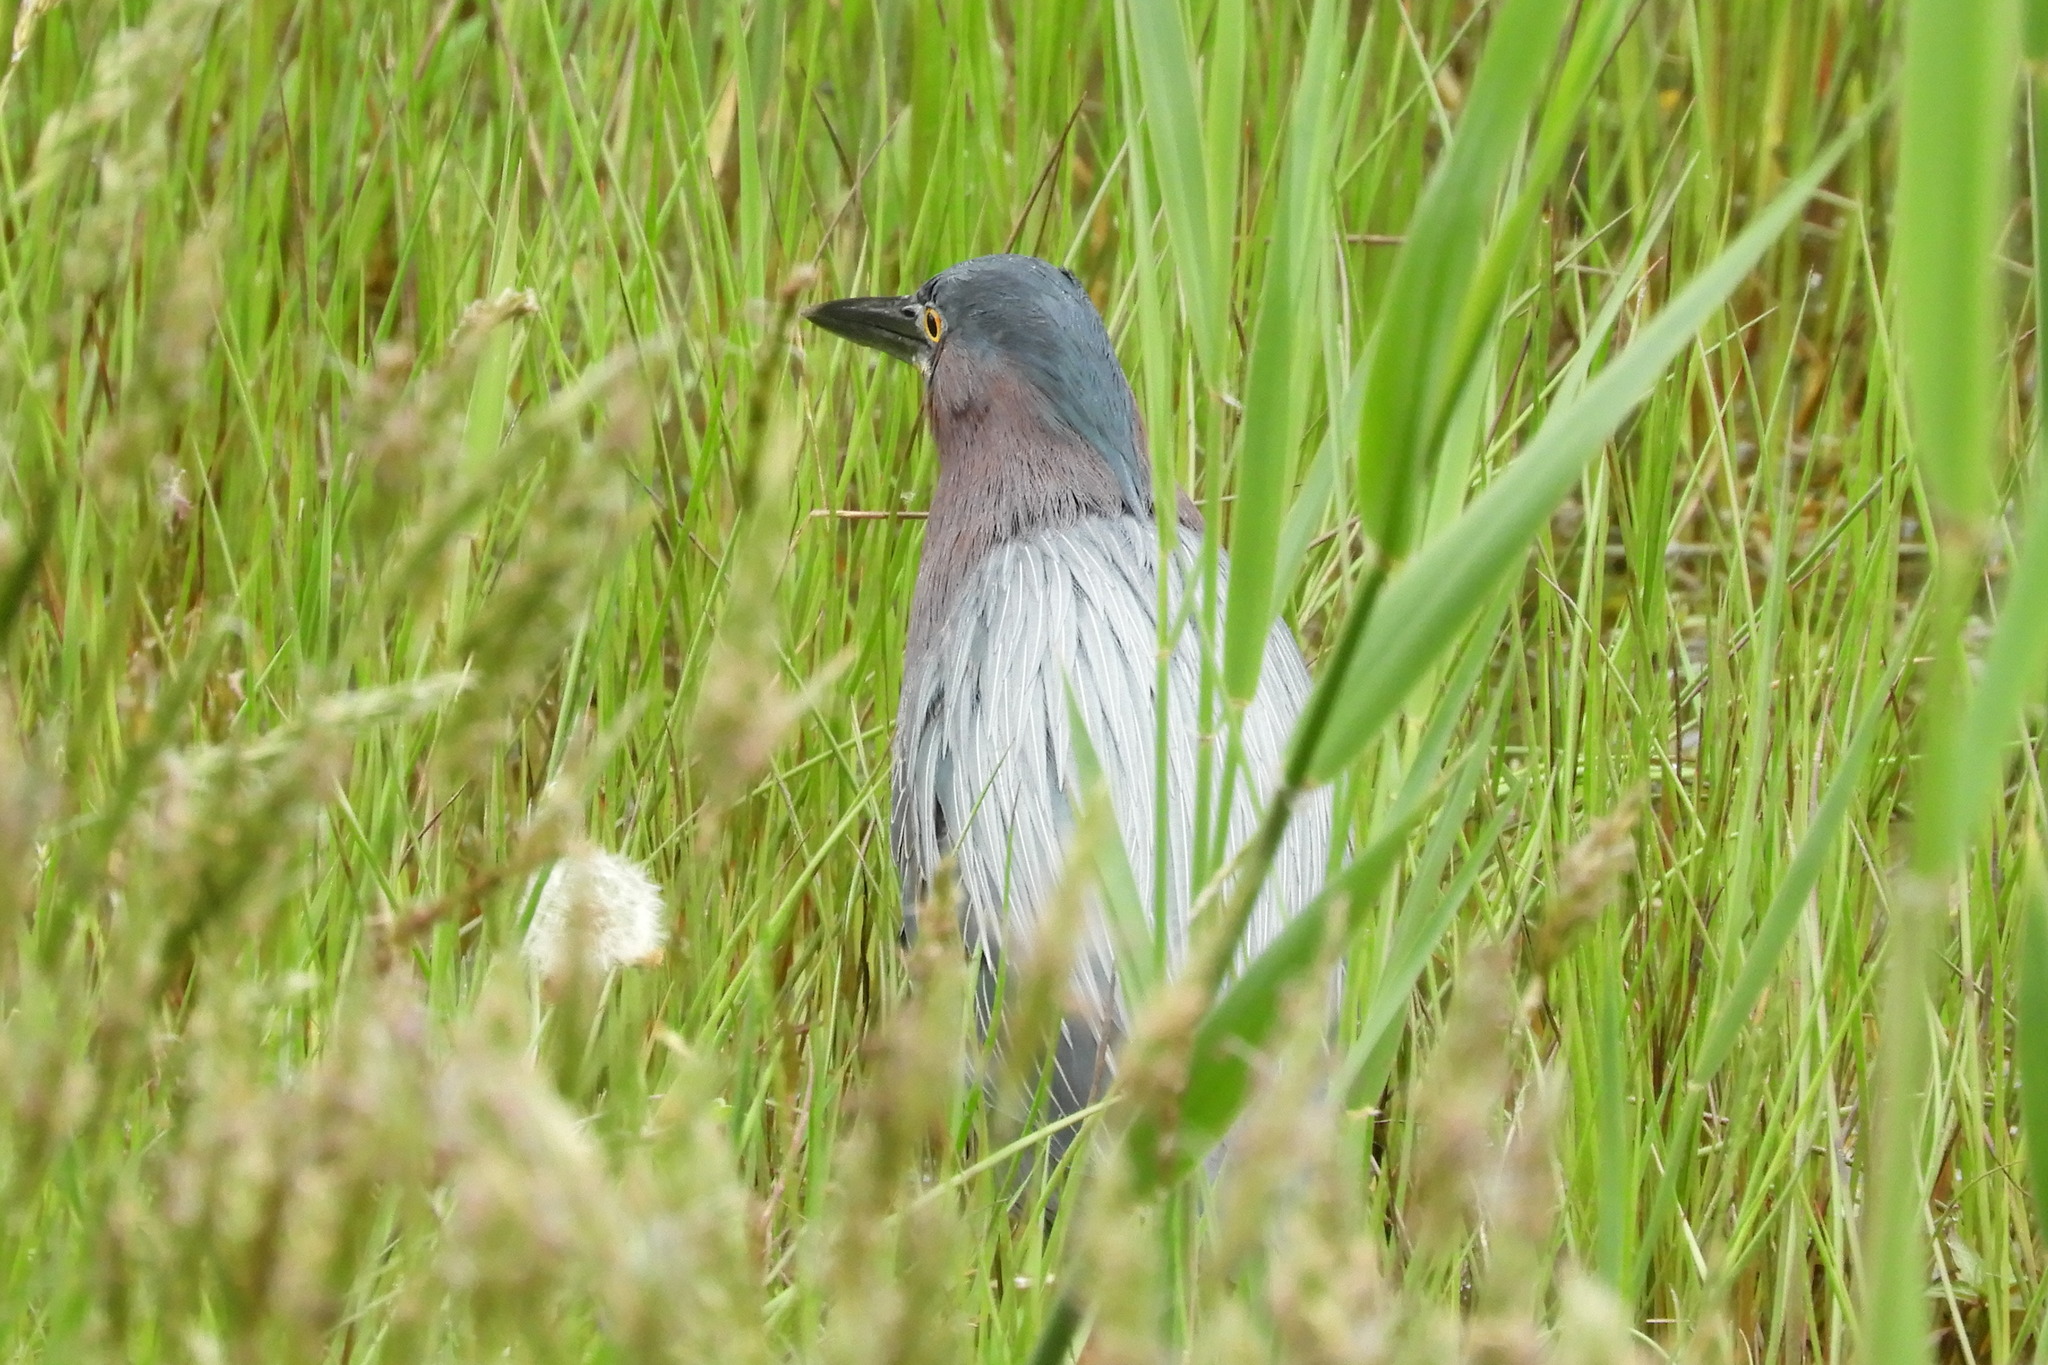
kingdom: Animalia
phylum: Chordata
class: Aves
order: Pelecaniformes
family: Ardeidae
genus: Butorides
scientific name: Butorides virescens
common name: Green heron
